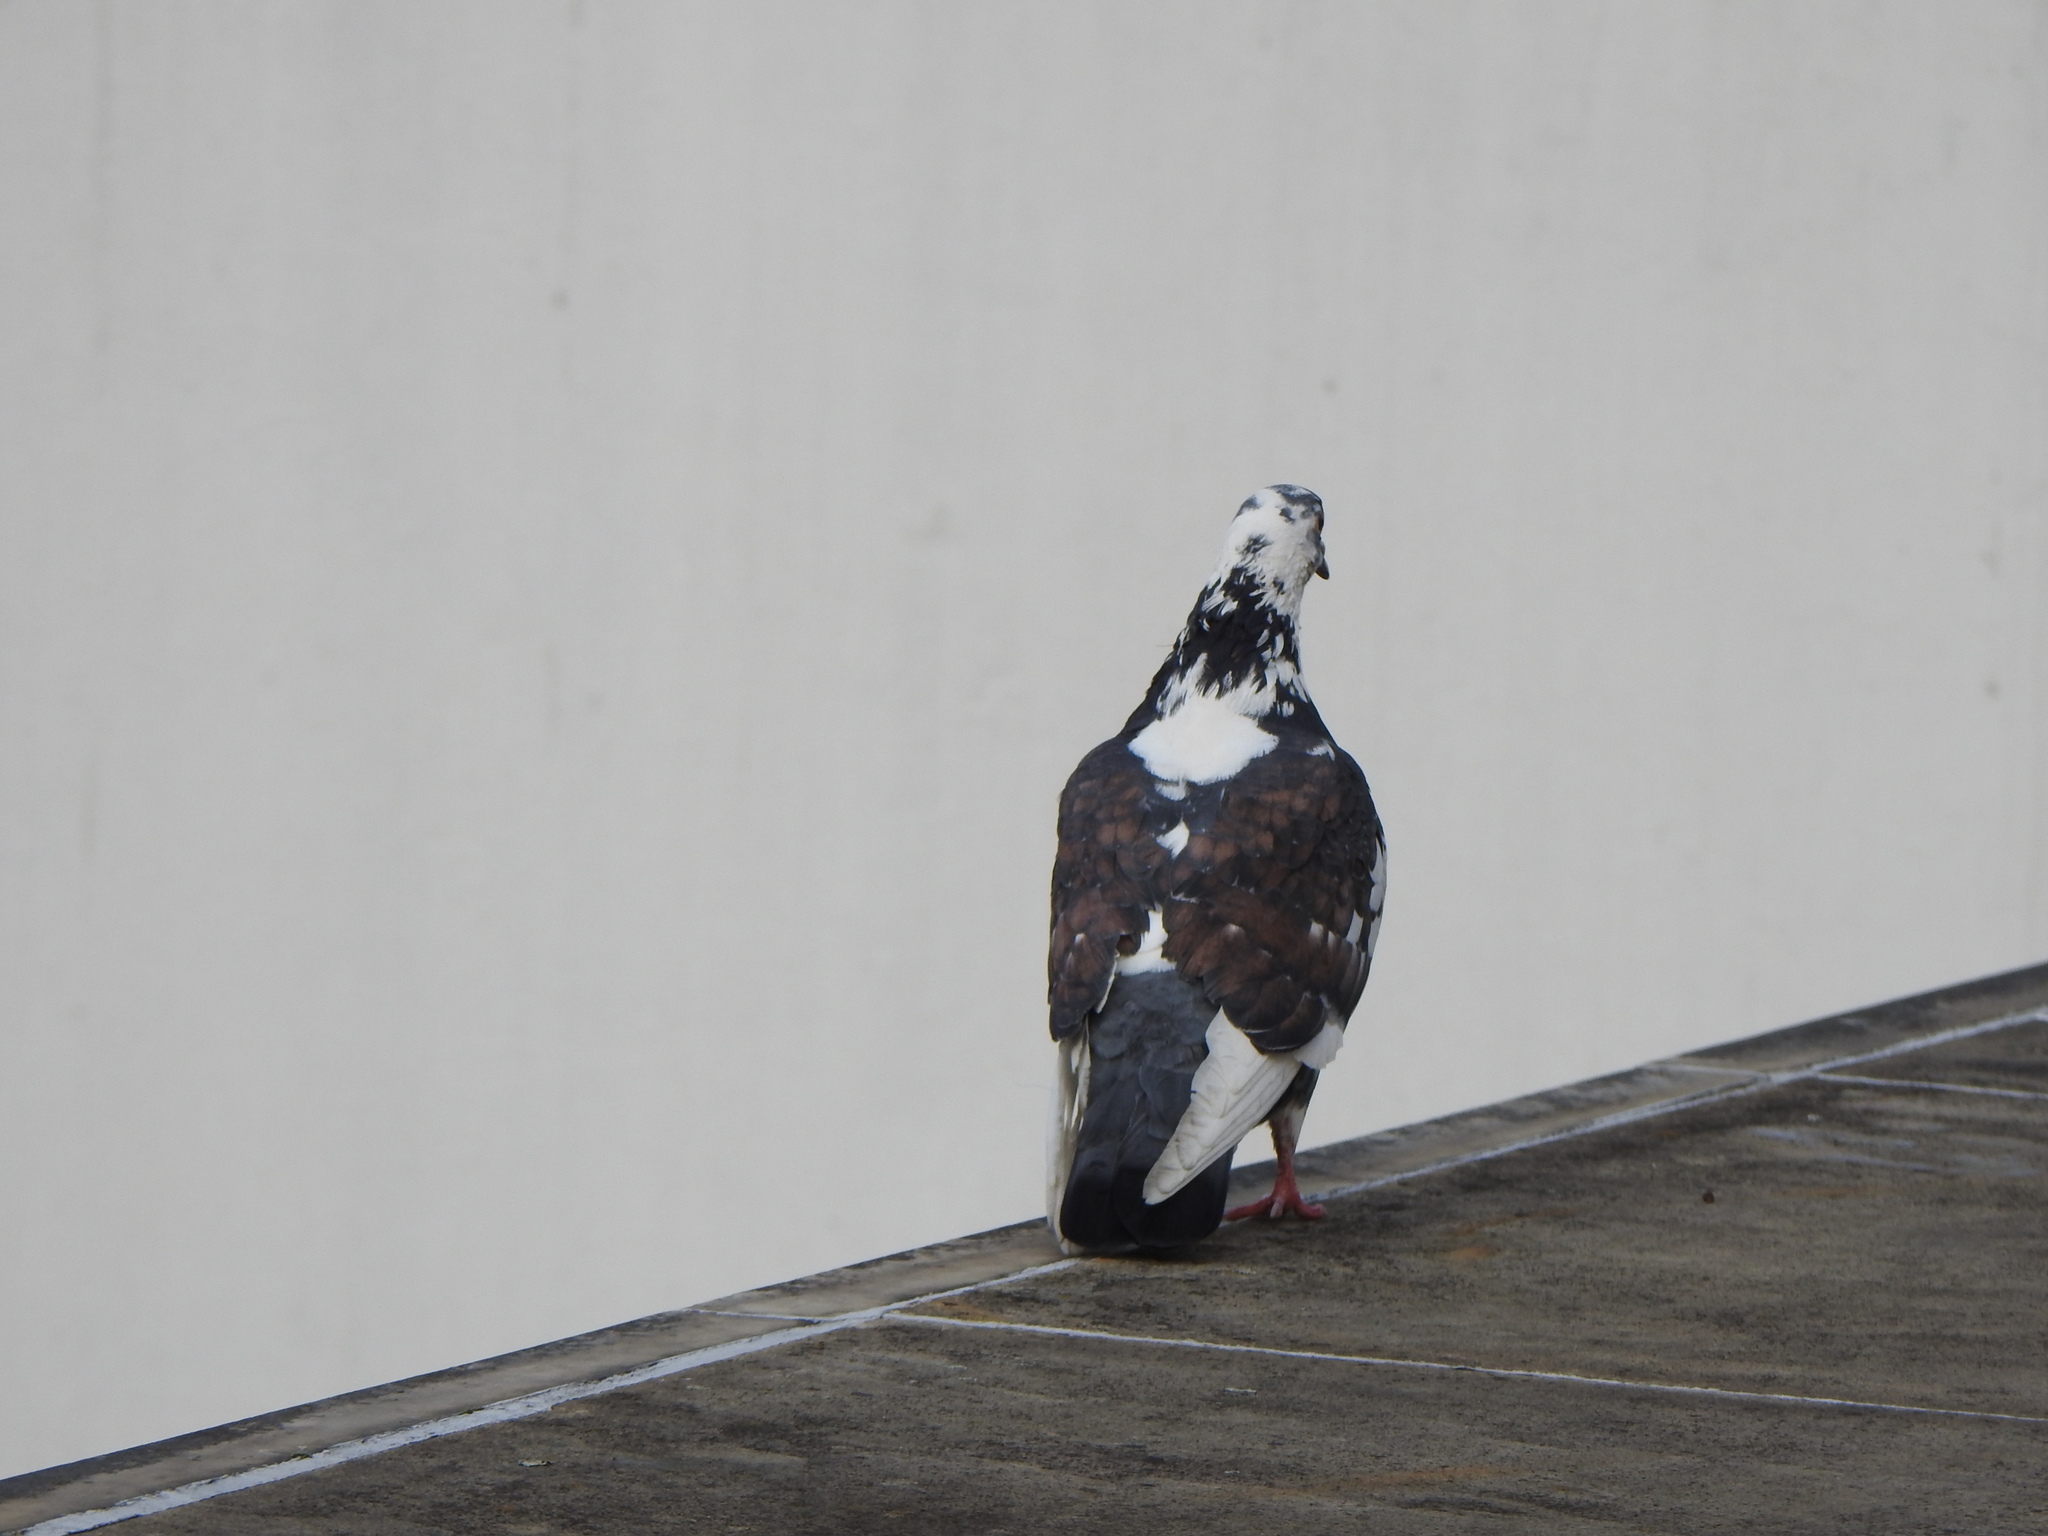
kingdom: Animalia
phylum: Chordata
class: Aves
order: Columbiformes
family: Columbidae
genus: Columba
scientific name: Columba livia
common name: Rock pigeon
